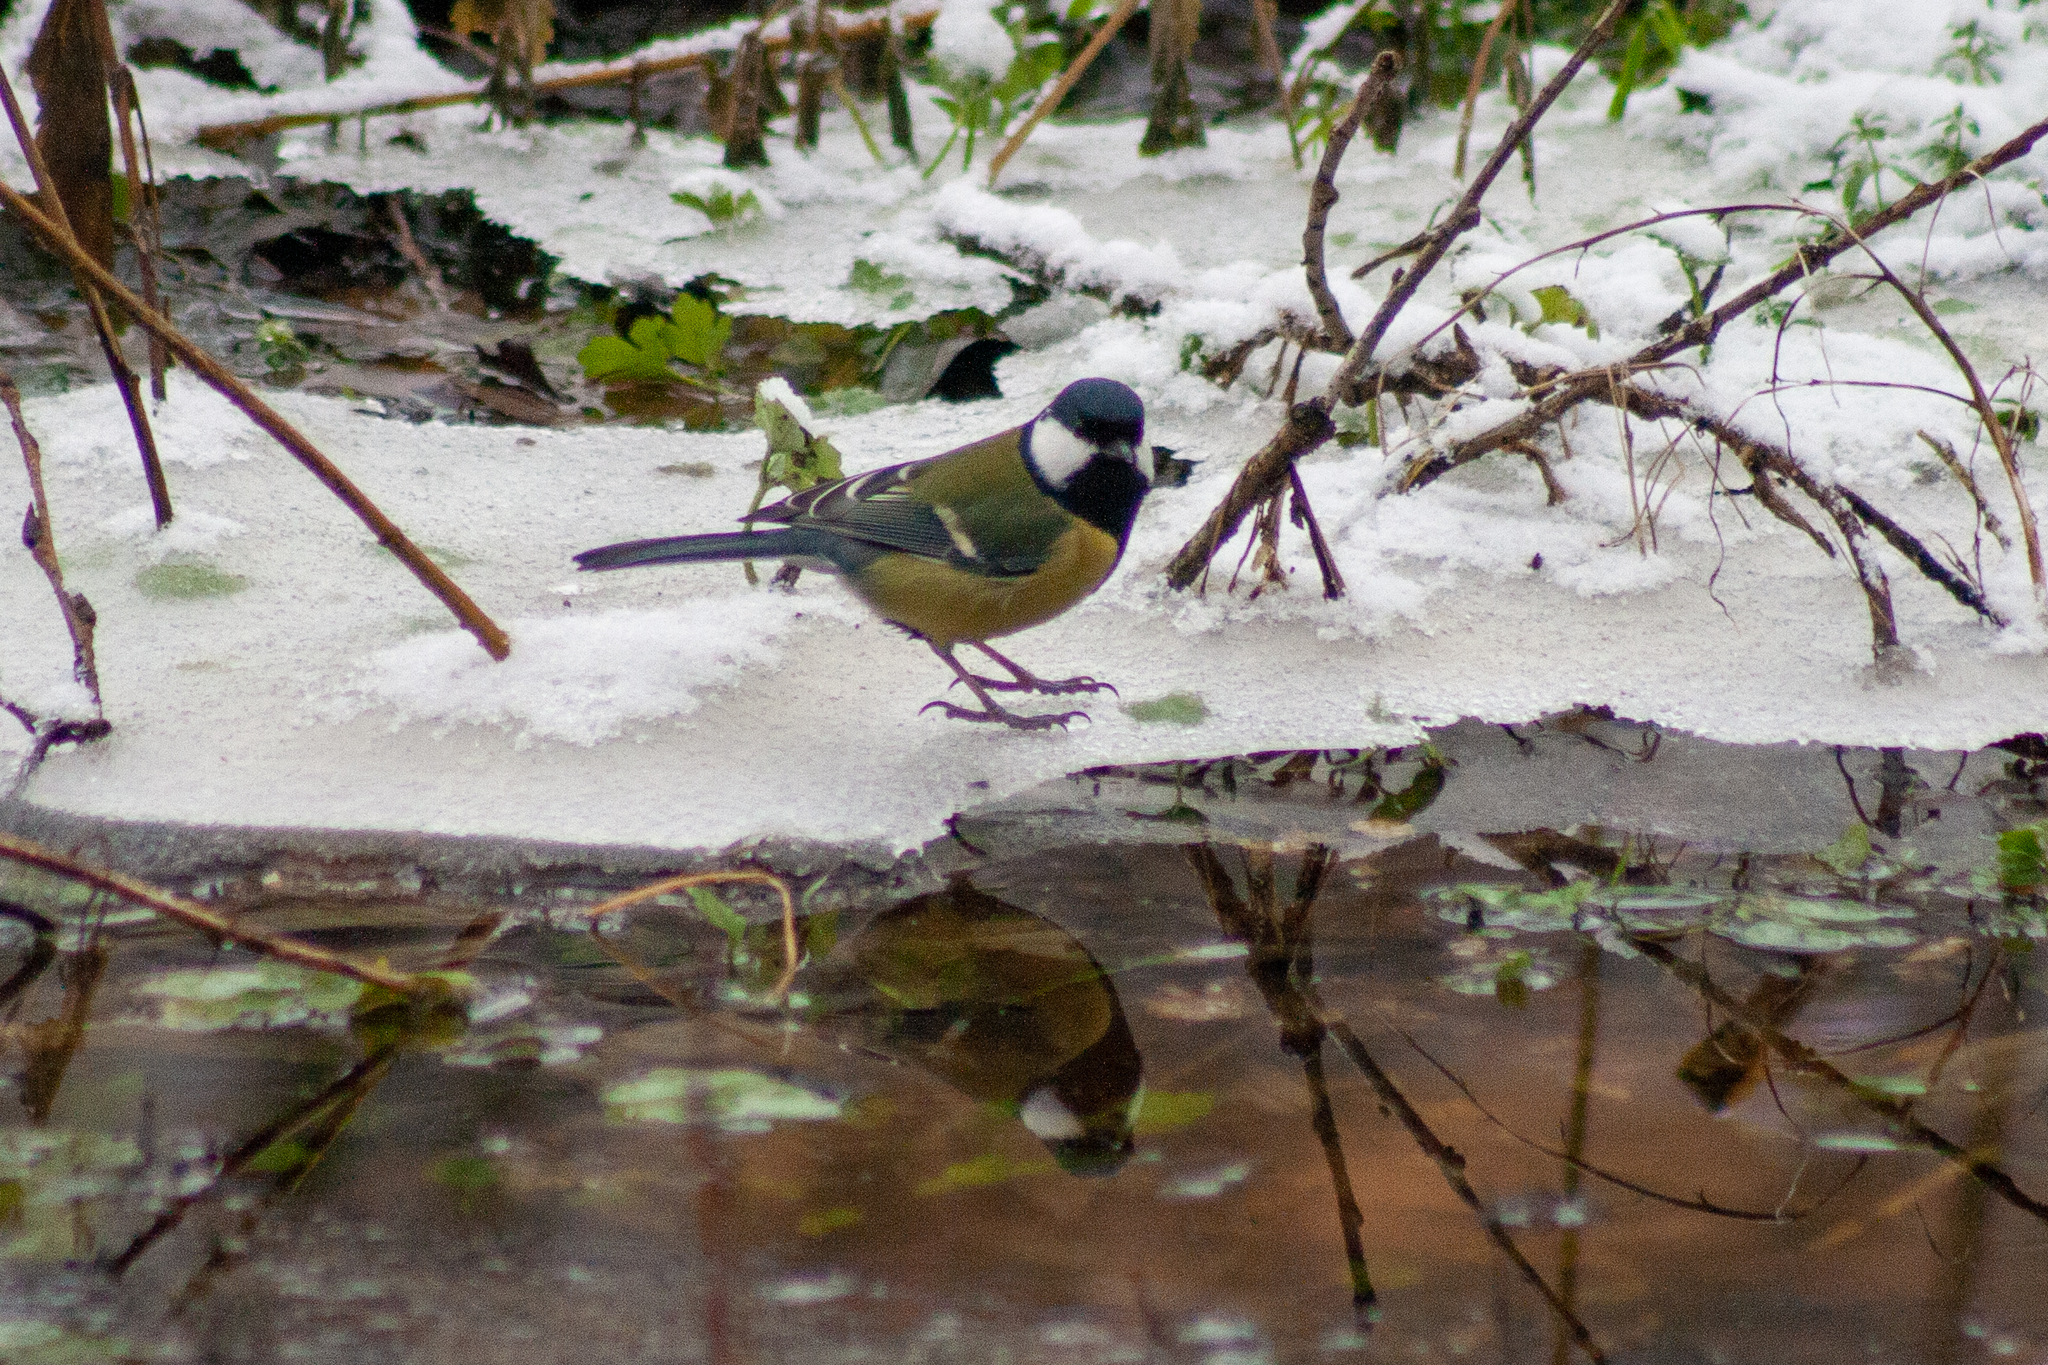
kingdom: Animalia
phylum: Chordata
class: Aves
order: Passeriformes
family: Paridae
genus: Parus
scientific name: Parus major
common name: Great tit
